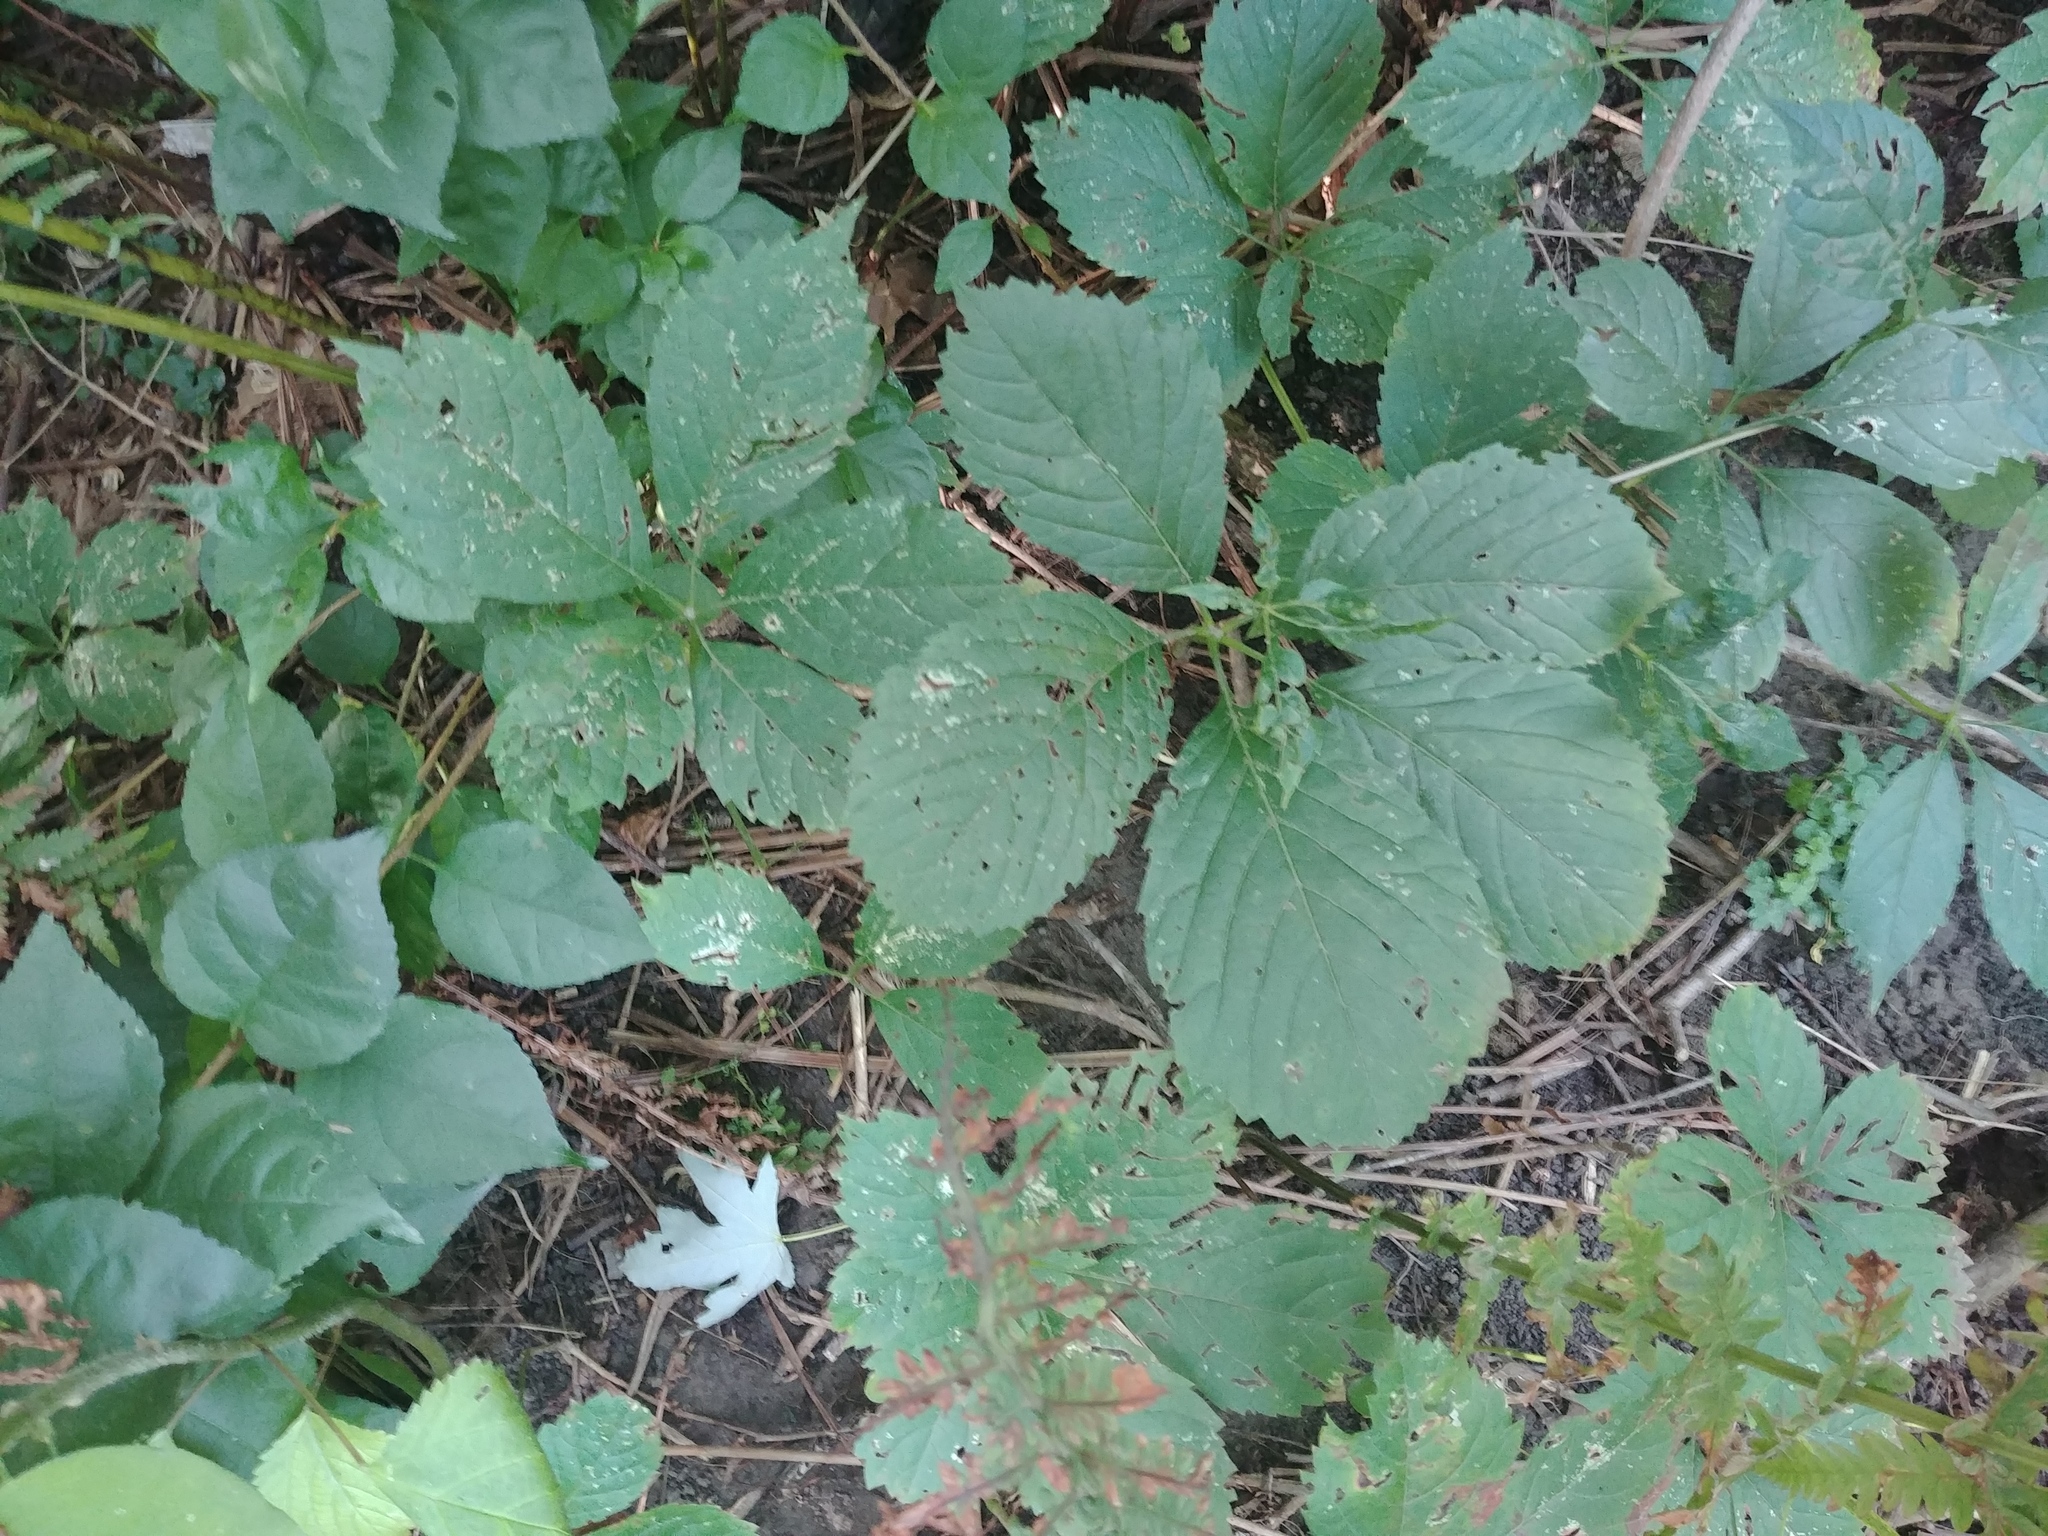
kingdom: Plantae
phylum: Tracheophyta
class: Magnoliopsida
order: Vitales
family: Vitaceae
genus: Parthenocissus
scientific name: Parthenocissus inserta
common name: False virginia-creeper
